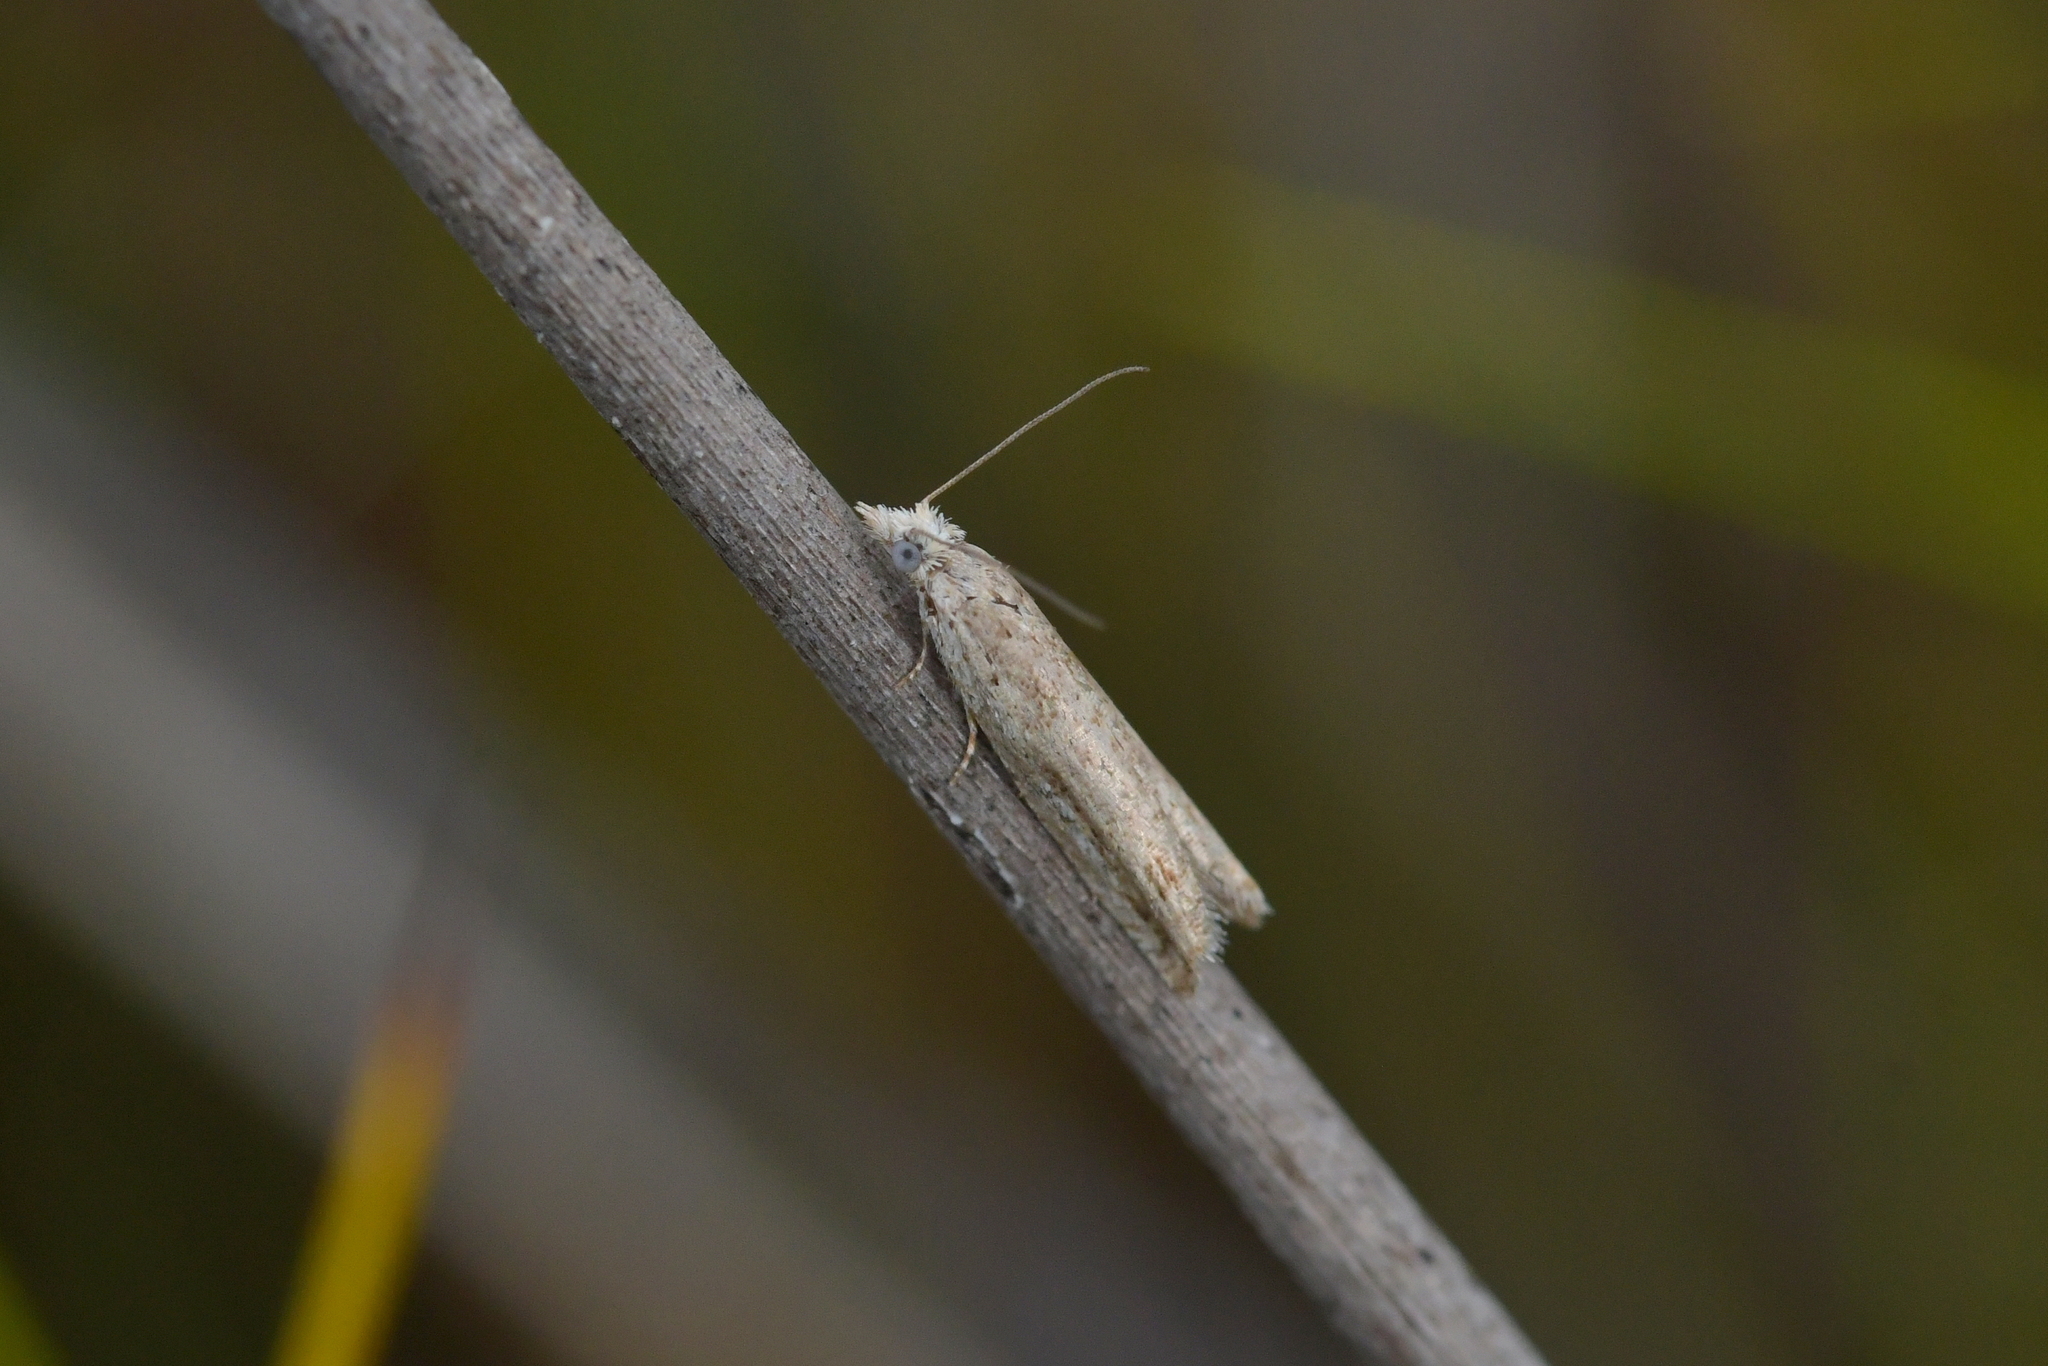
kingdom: Animalia
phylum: Arthropoda
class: Insecta
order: Lepidoptera
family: Tortricidae
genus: Holocola
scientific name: Holocola zopherana
